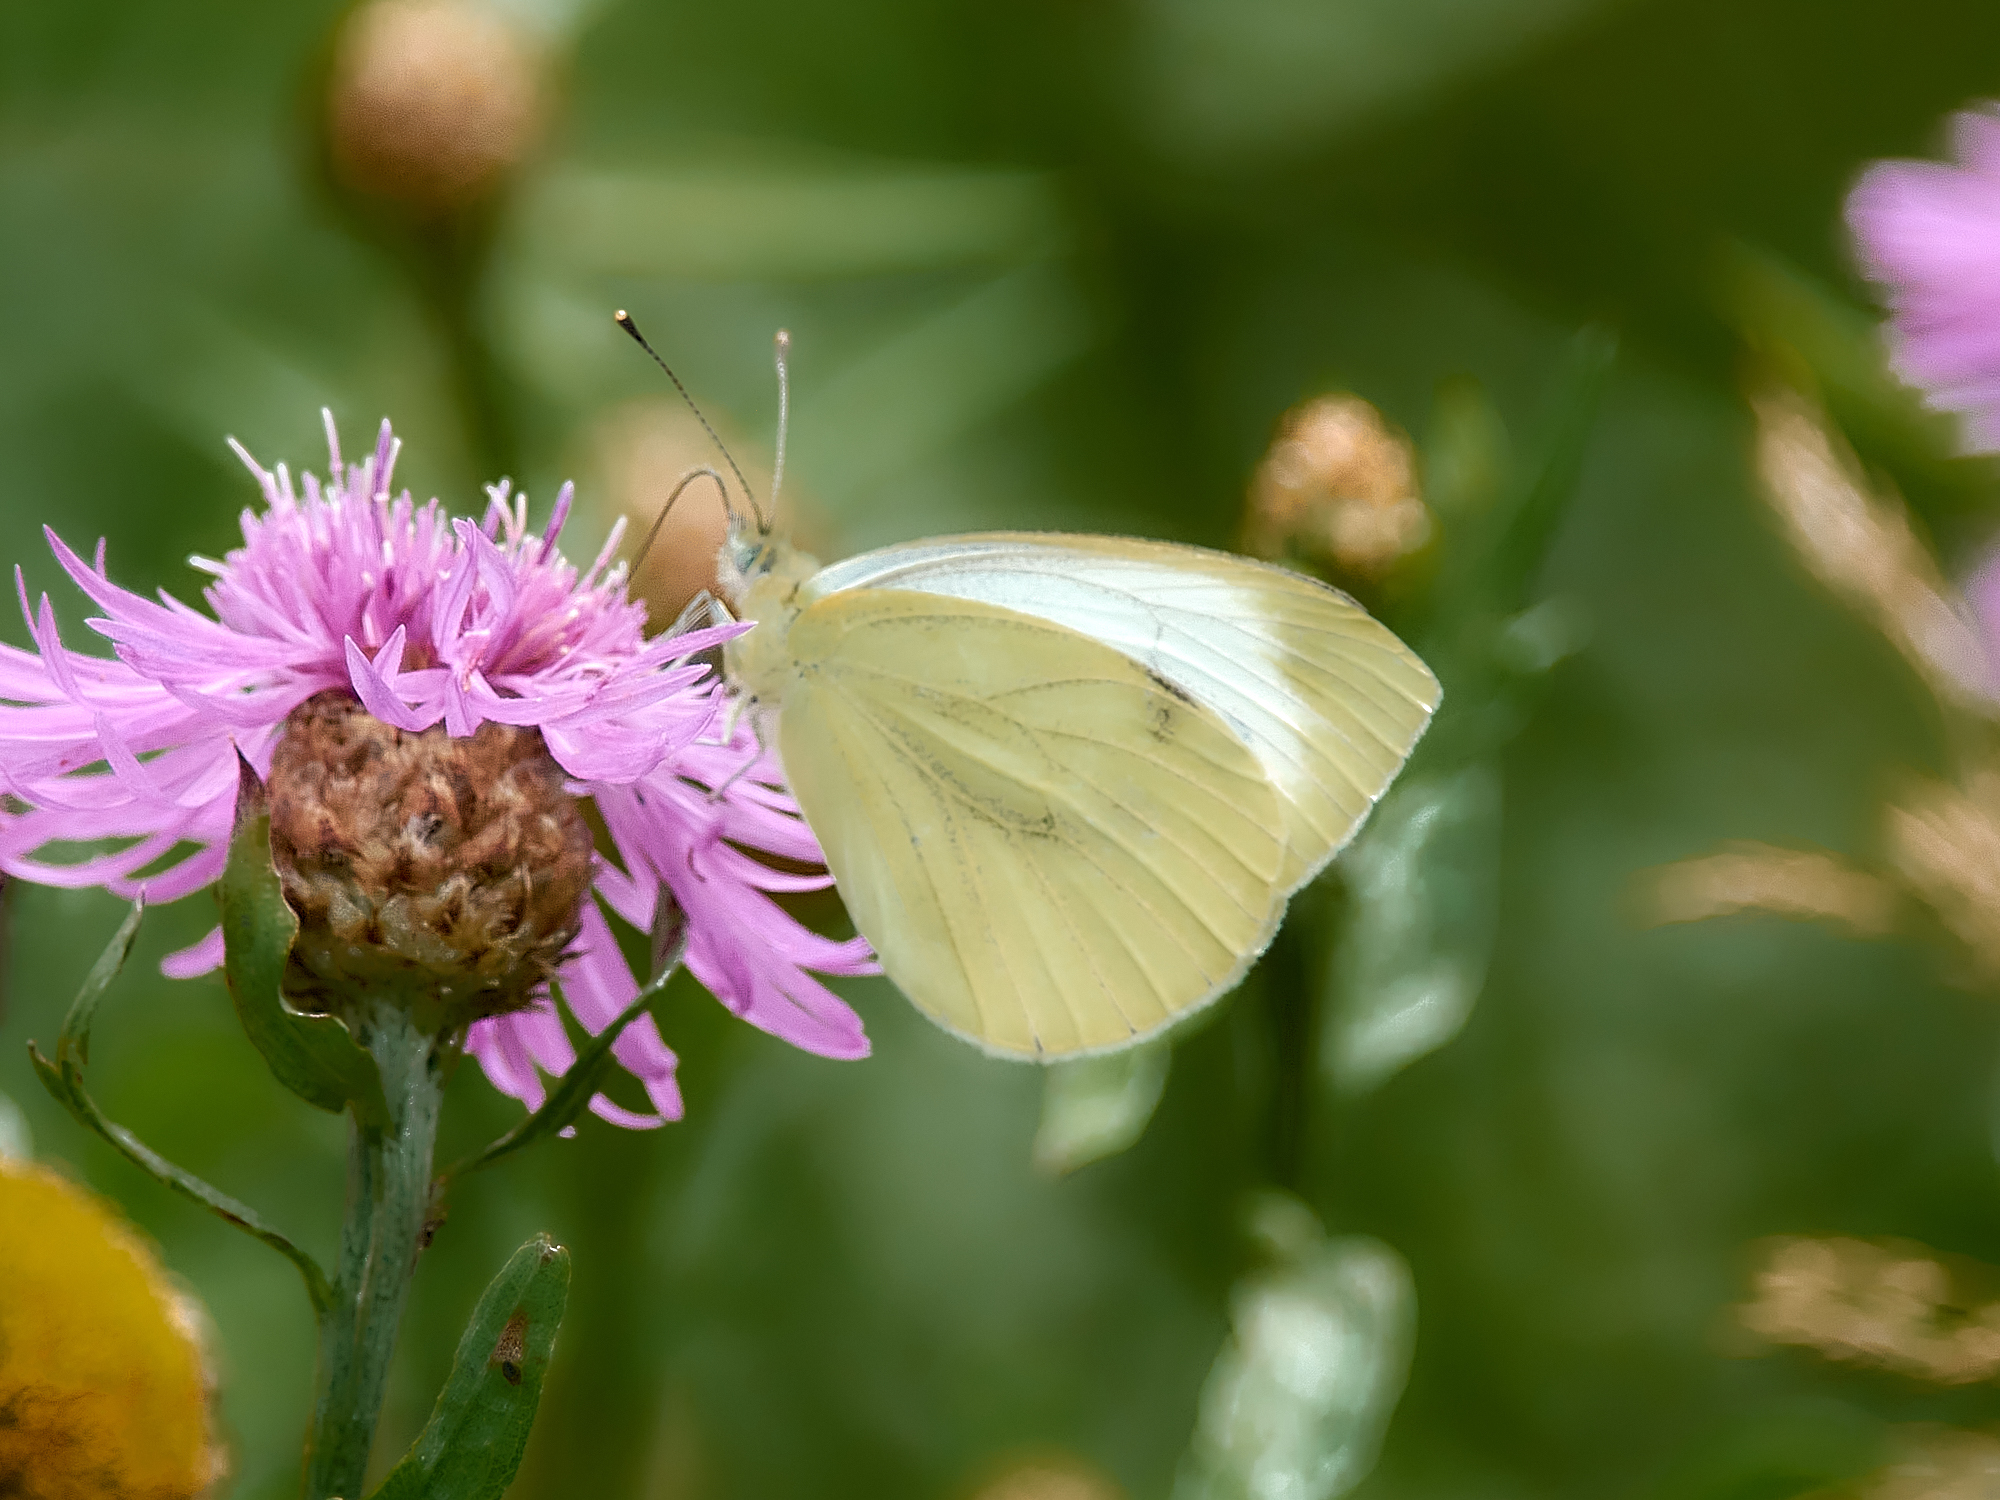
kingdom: Animalia
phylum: Arthropoda
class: Insecta
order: Lepidoptera
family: Pieridae
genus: Pieris
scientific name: Pieris napi
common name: Green-veined white
